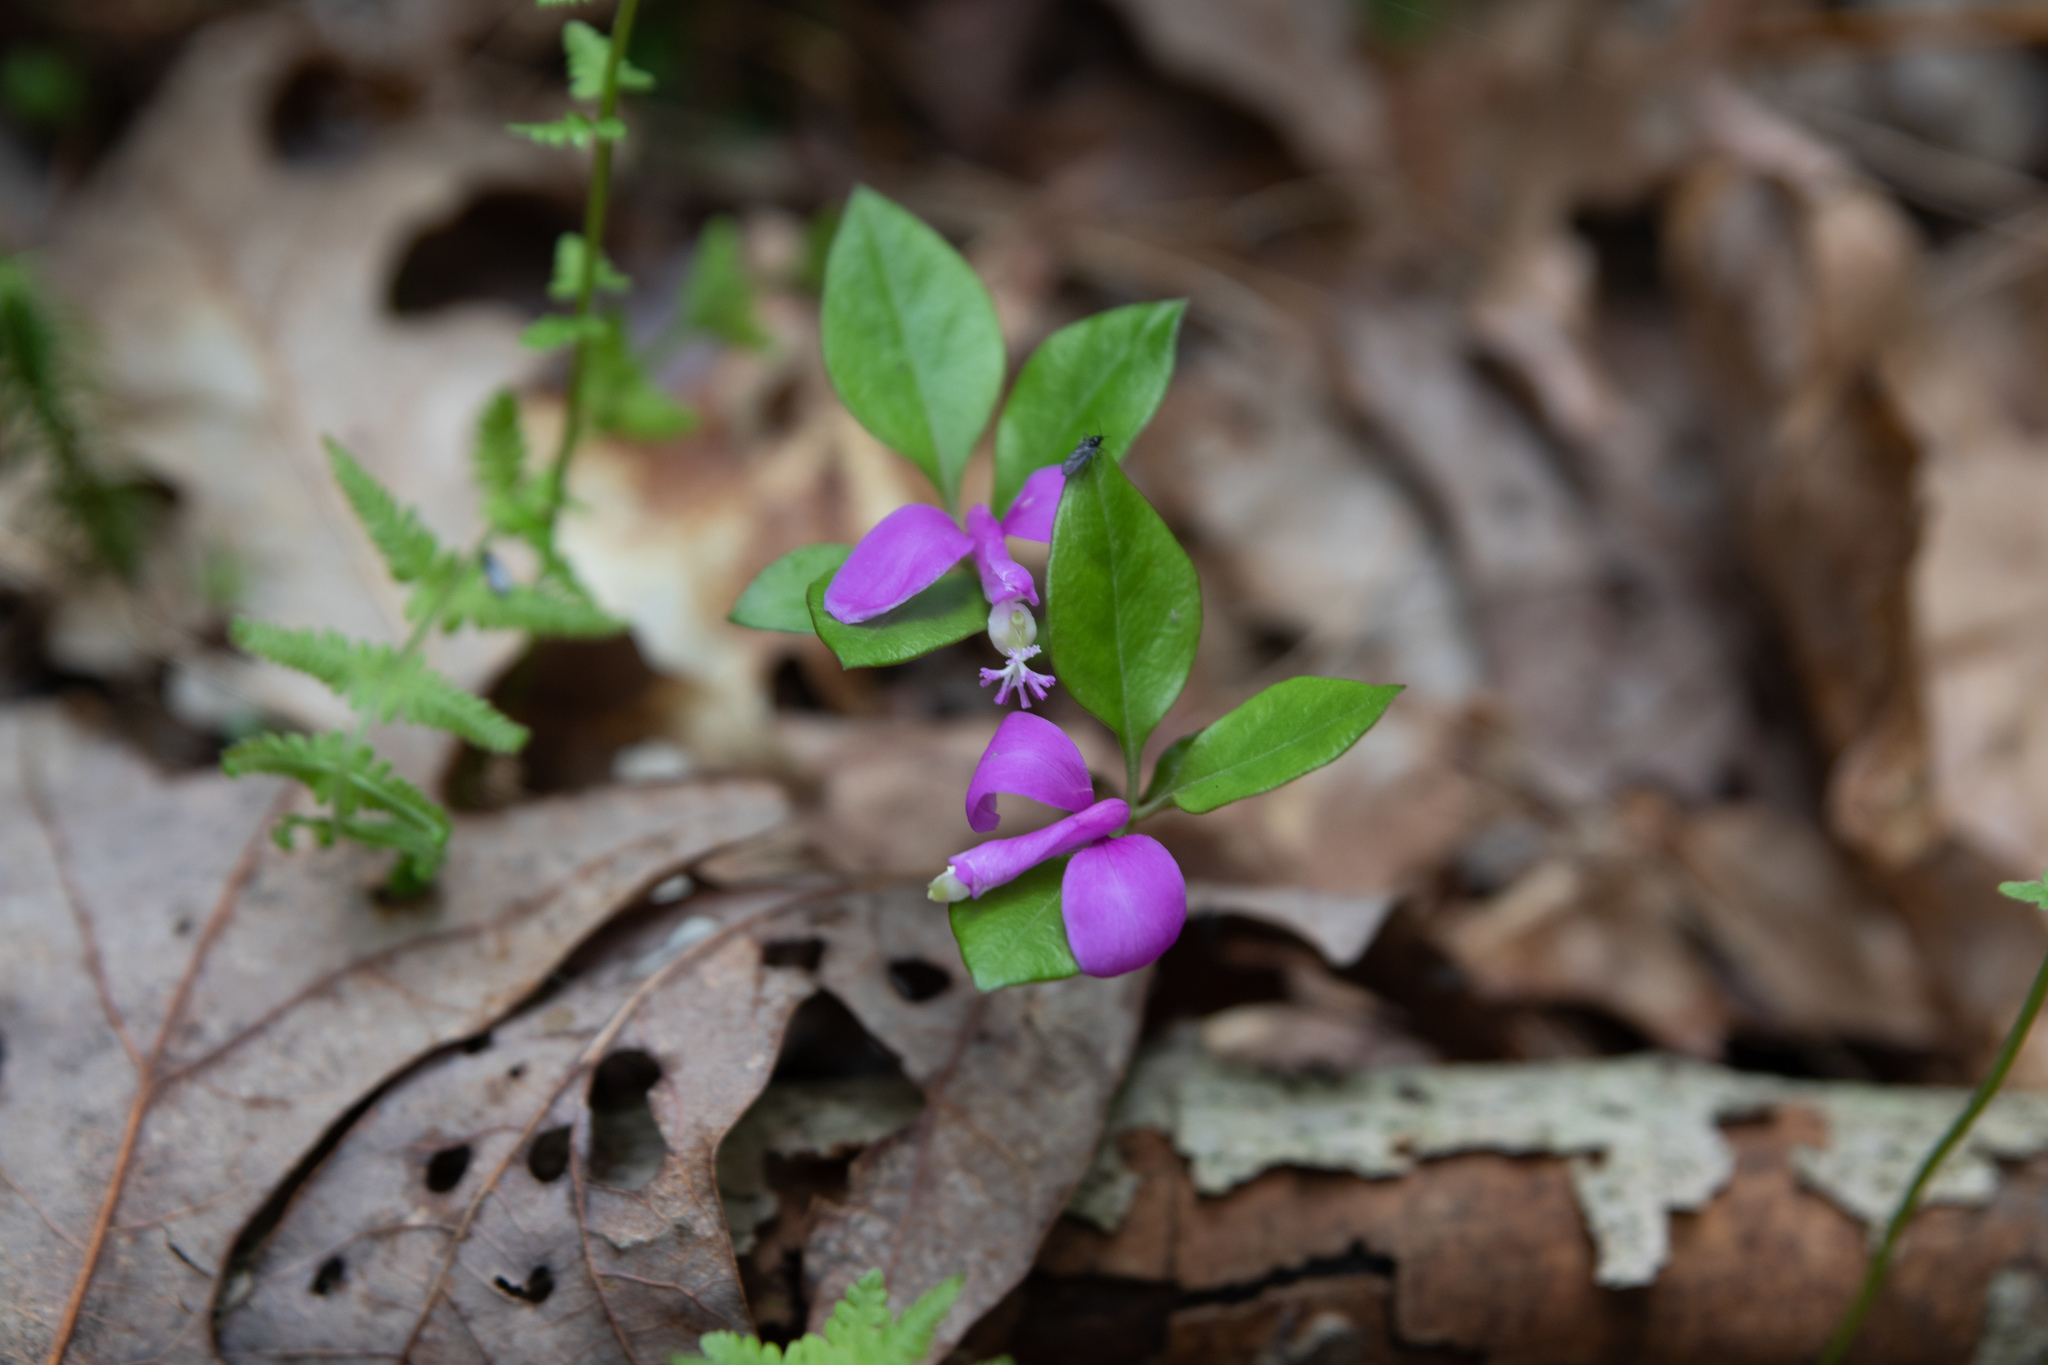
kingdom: Plantae
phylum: Tracheophyta
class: Magnoliopsida
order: Fabales
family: Polygalaceae
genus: Polygaloides
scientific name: Polygaloides paucifolia
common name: Bird-on-the-wing
